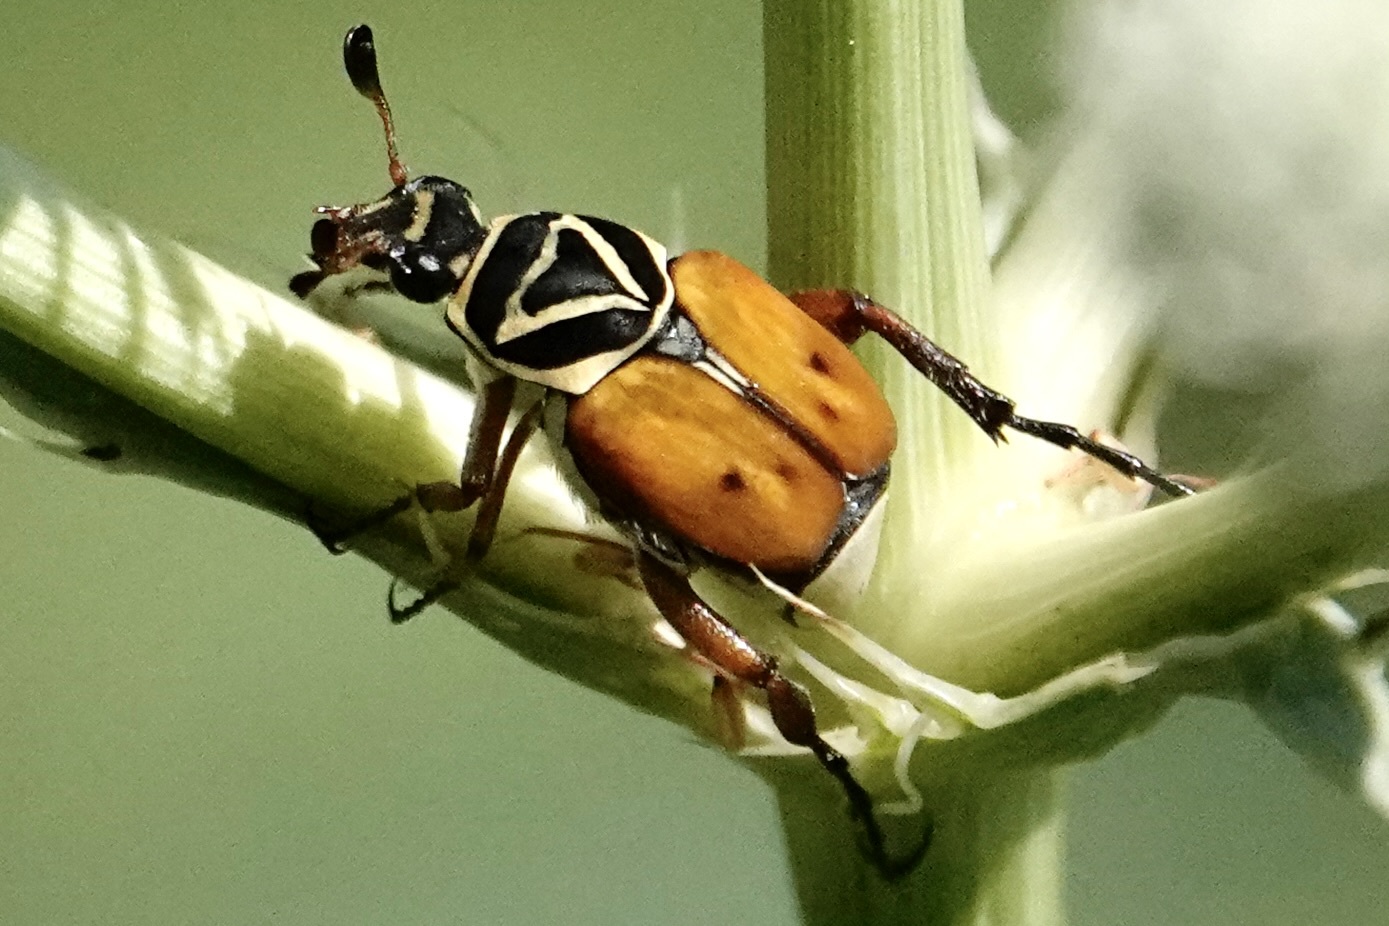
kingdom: Animalia
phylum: Arthropoda
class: Insecta
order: Coleoptera
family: Scarabaeidae
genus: Trigonopeltastes
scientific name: Trigonopeltastes delta
